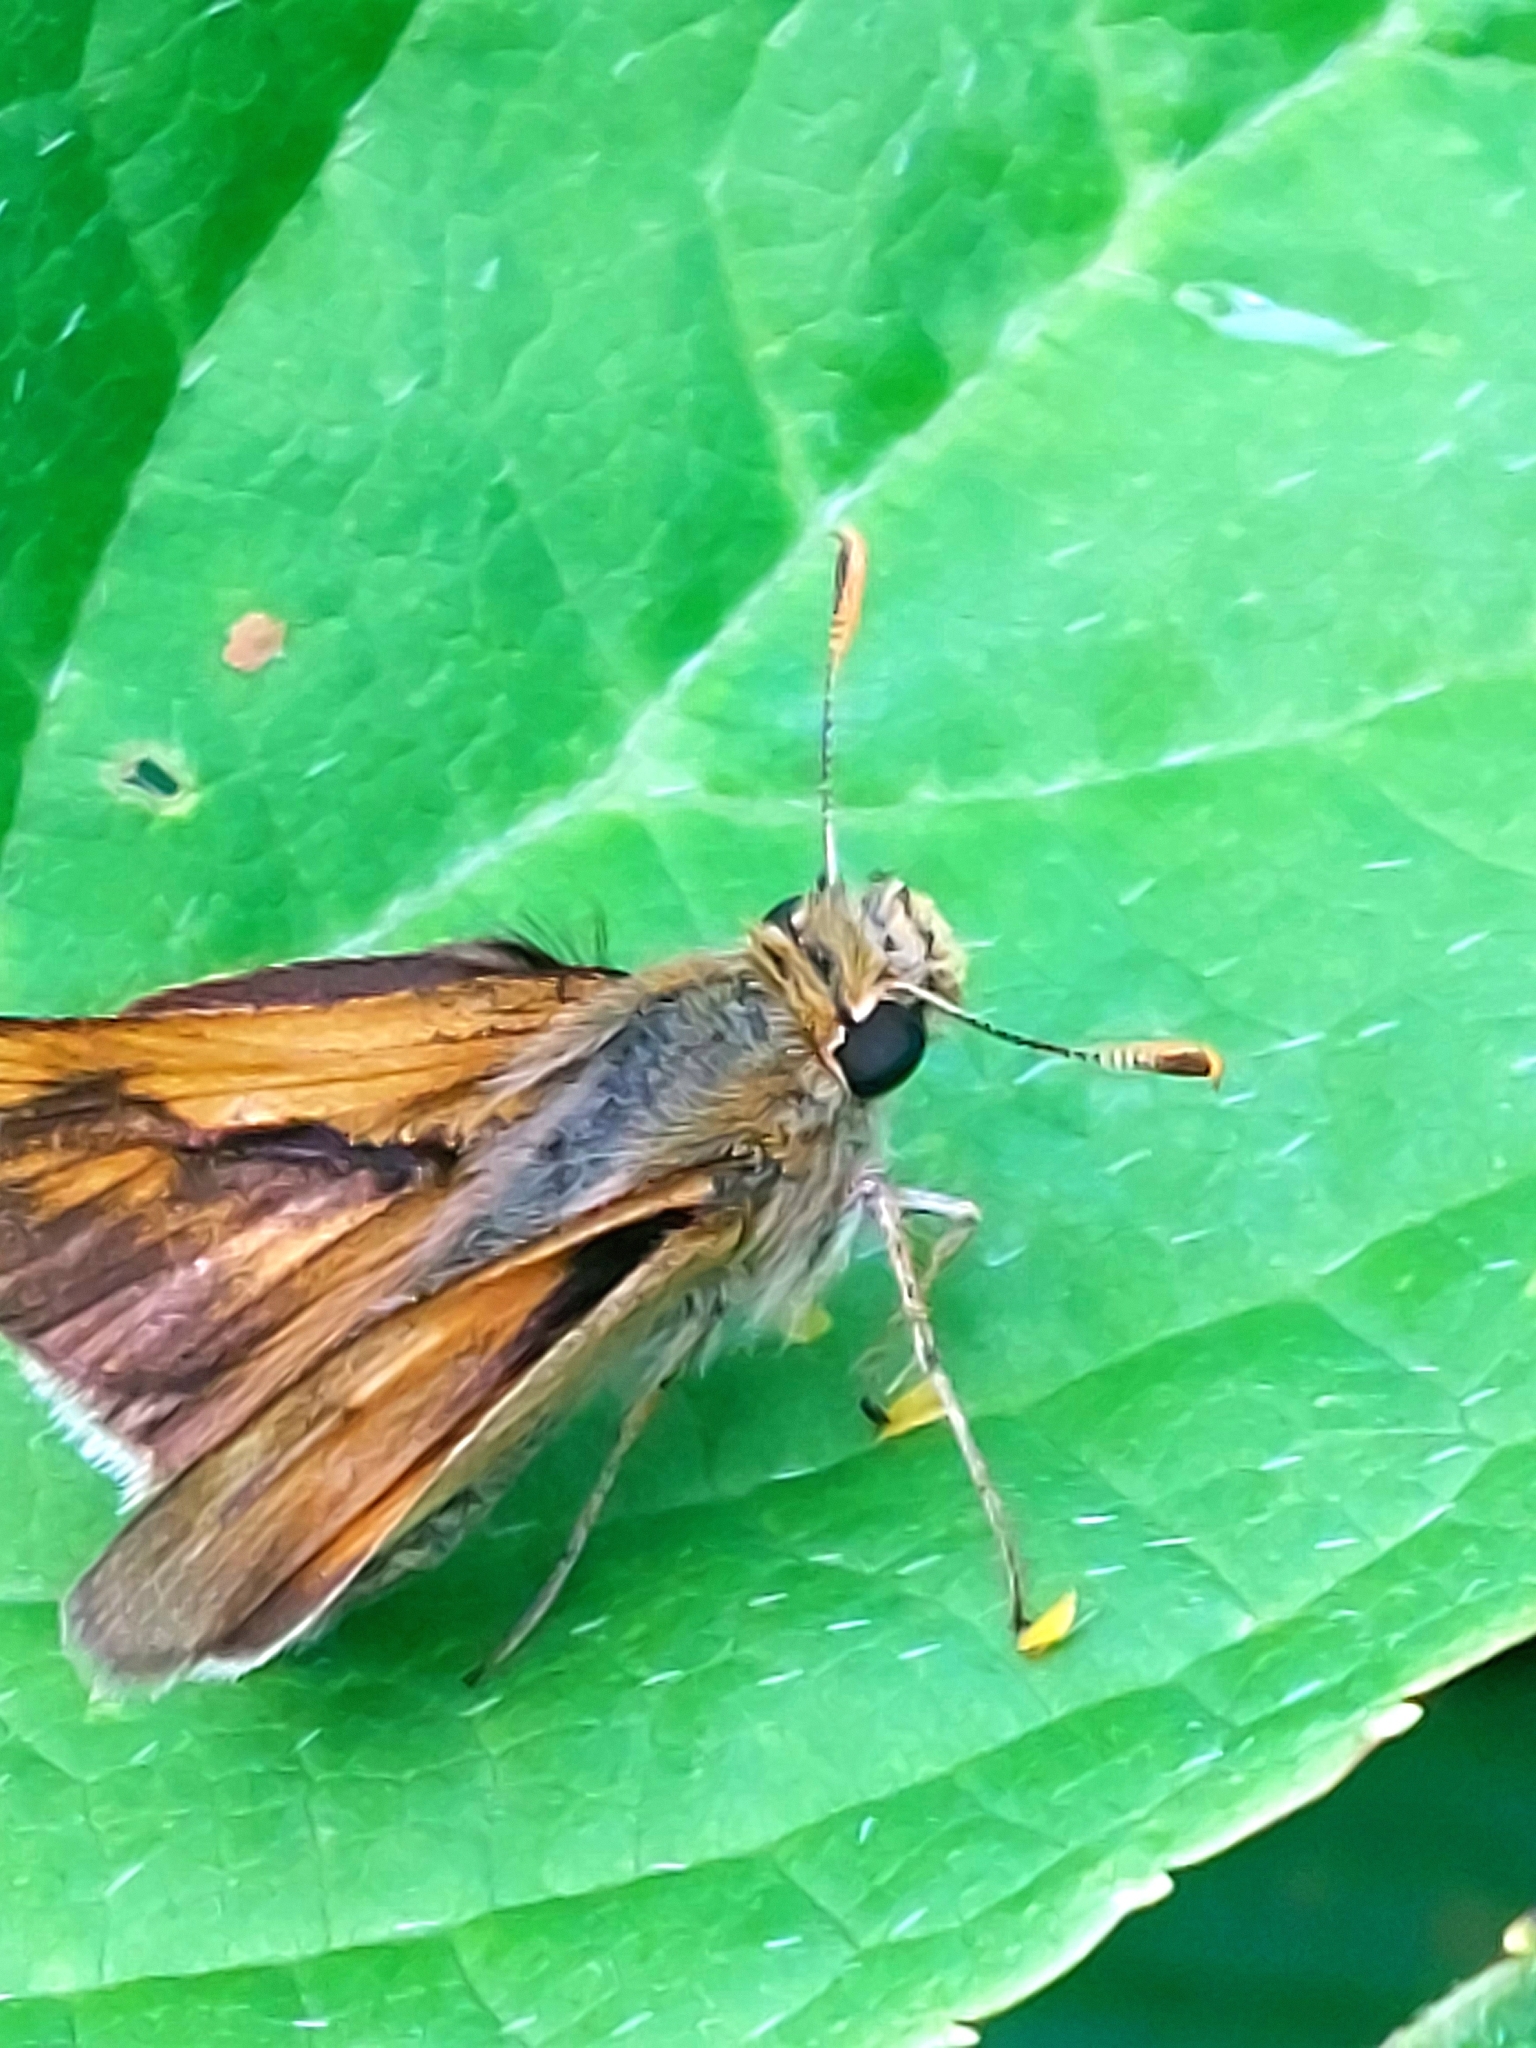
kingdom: Animalia
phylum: Arthropoda
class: Insecta
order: Lepidoptera
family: Hesperiidae
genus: Polites
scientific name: Polites mystic
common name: Long dash
